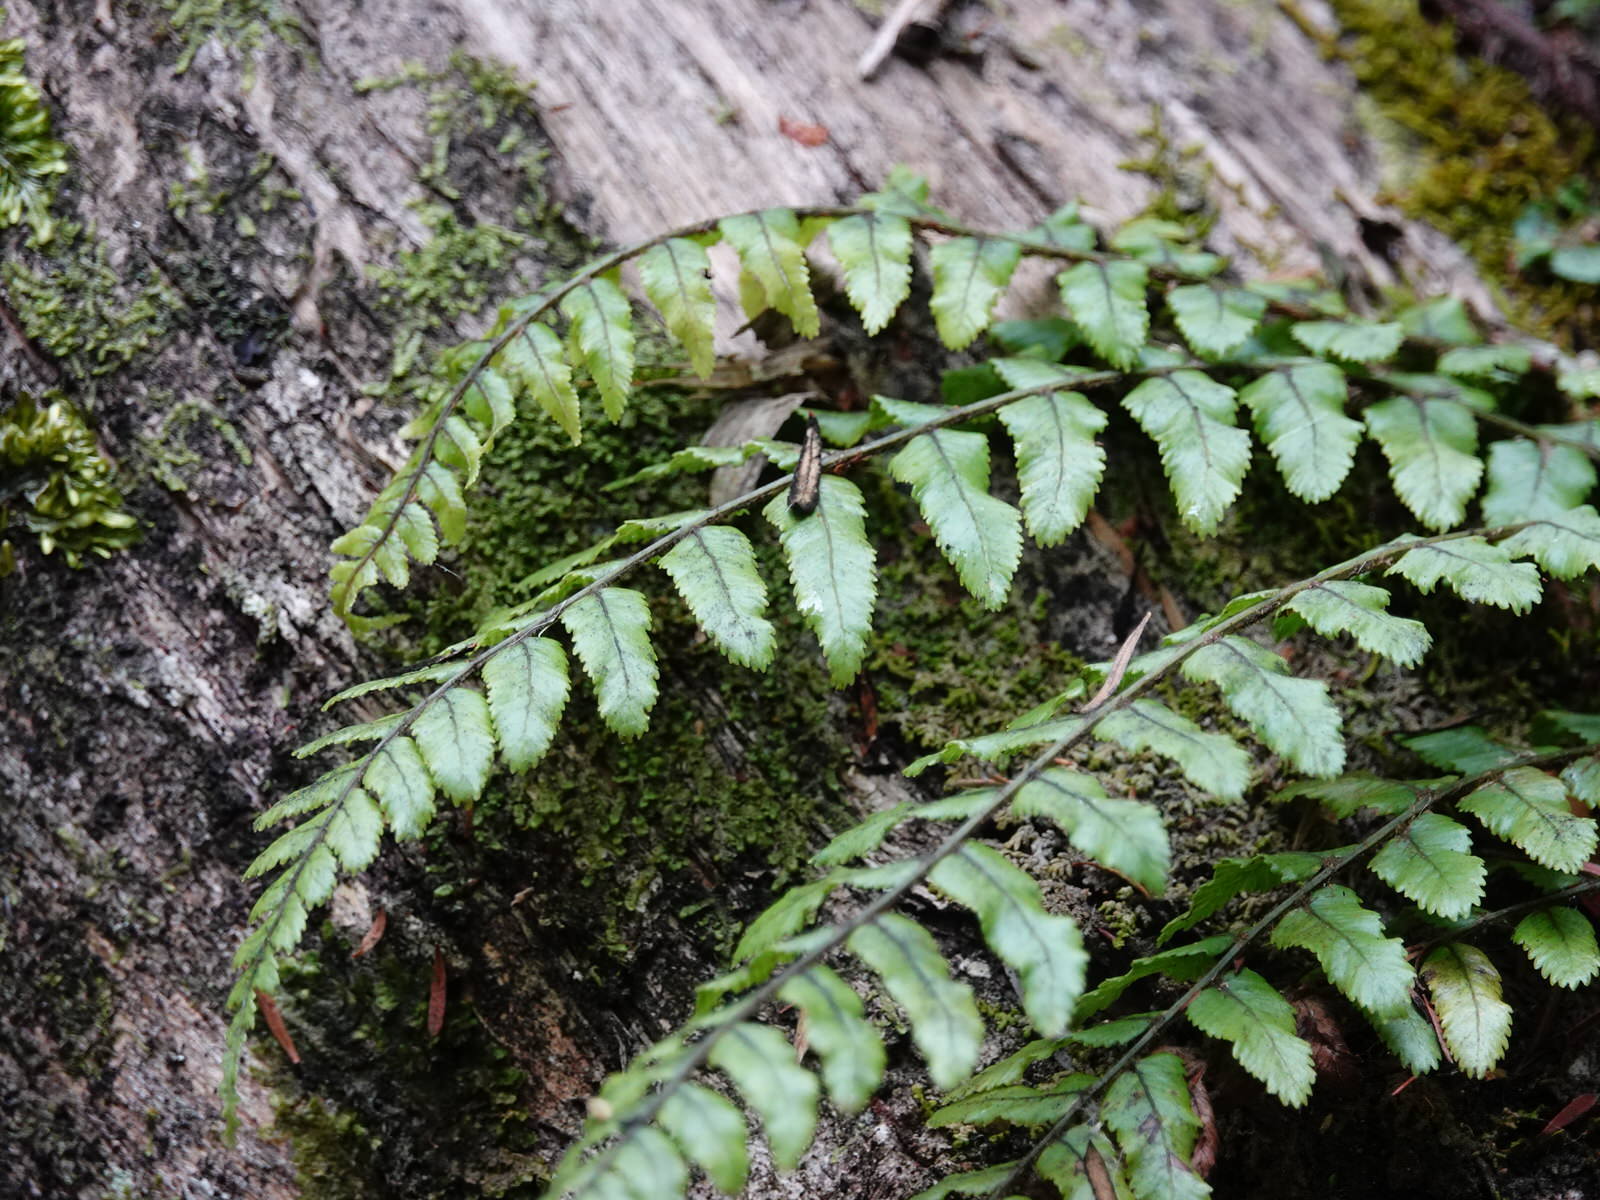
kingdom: Plantae
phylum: Tracheophyta
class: Polypodiopsida
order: Polypodiales
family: Blechnaceae
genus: Icarus
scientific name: Icarus filiformis
